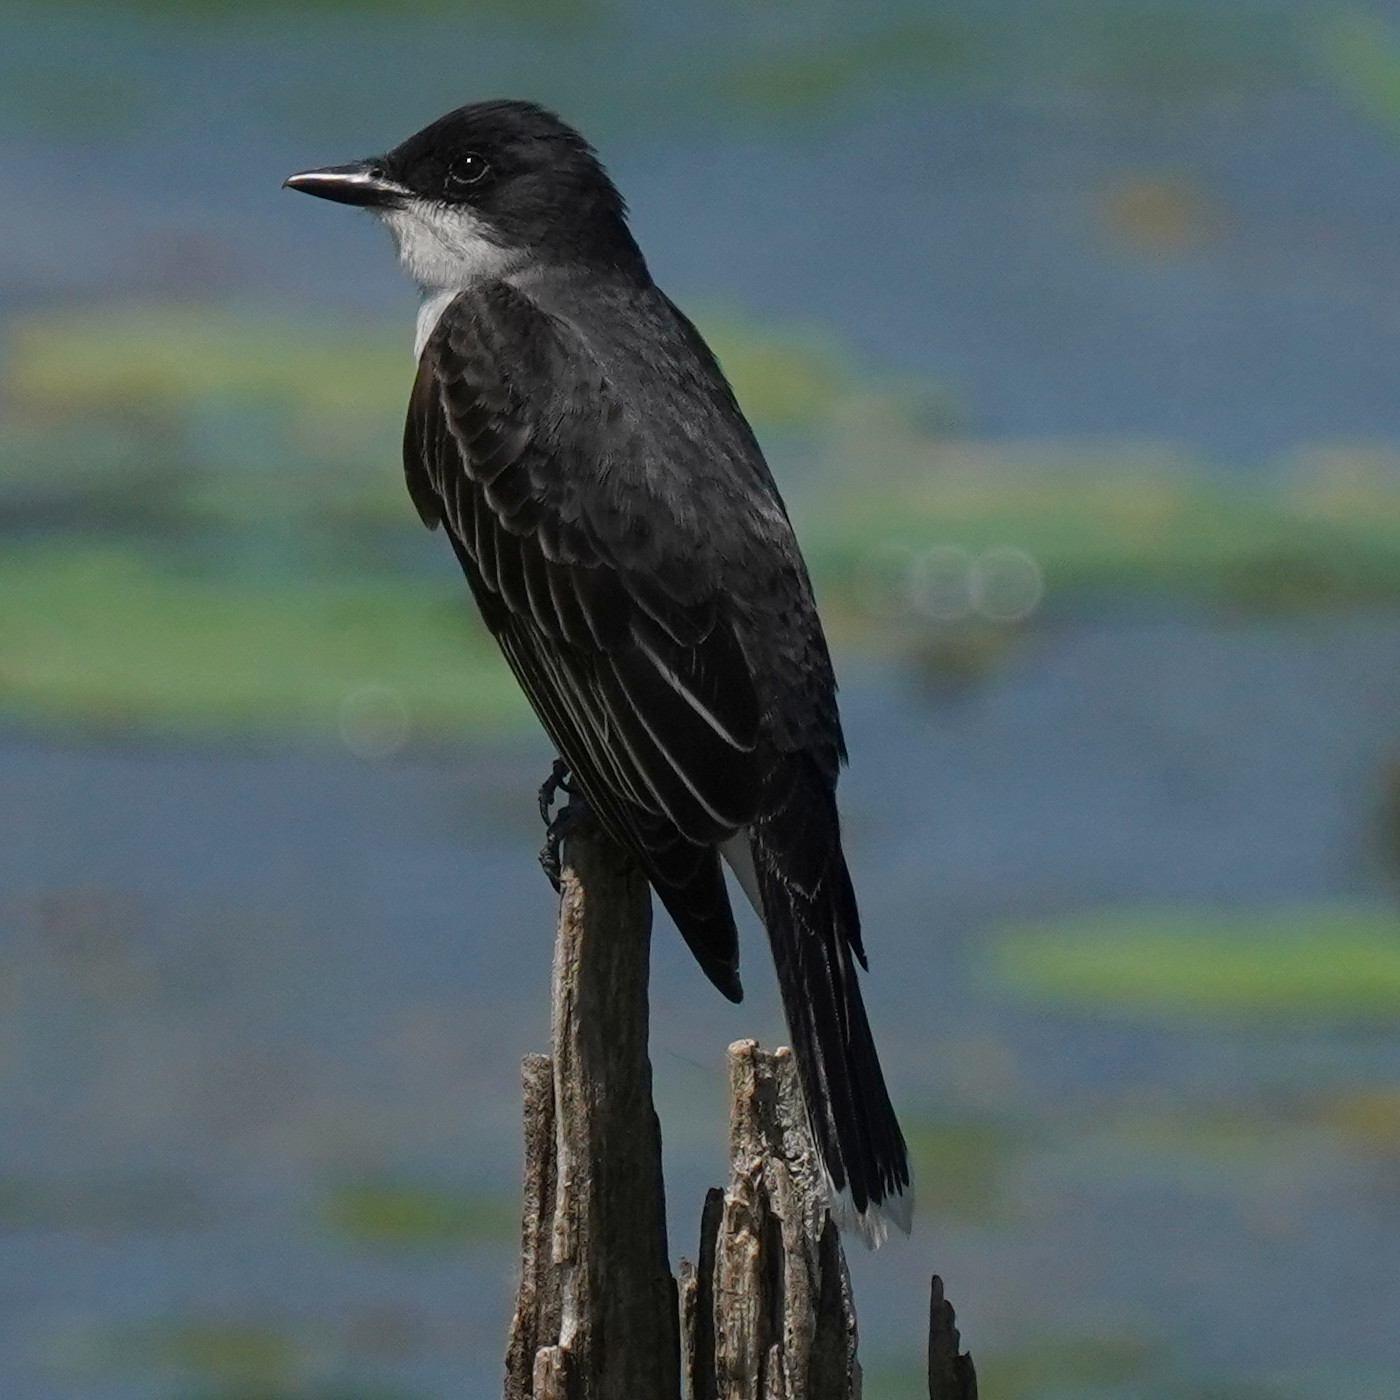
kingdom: Animalia
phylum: Chordata
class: Aves
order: Passeriformes
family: Tyrannidae
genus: Tyrannus
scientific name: Tyrannus tyrannus
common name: Eastern kingbird
